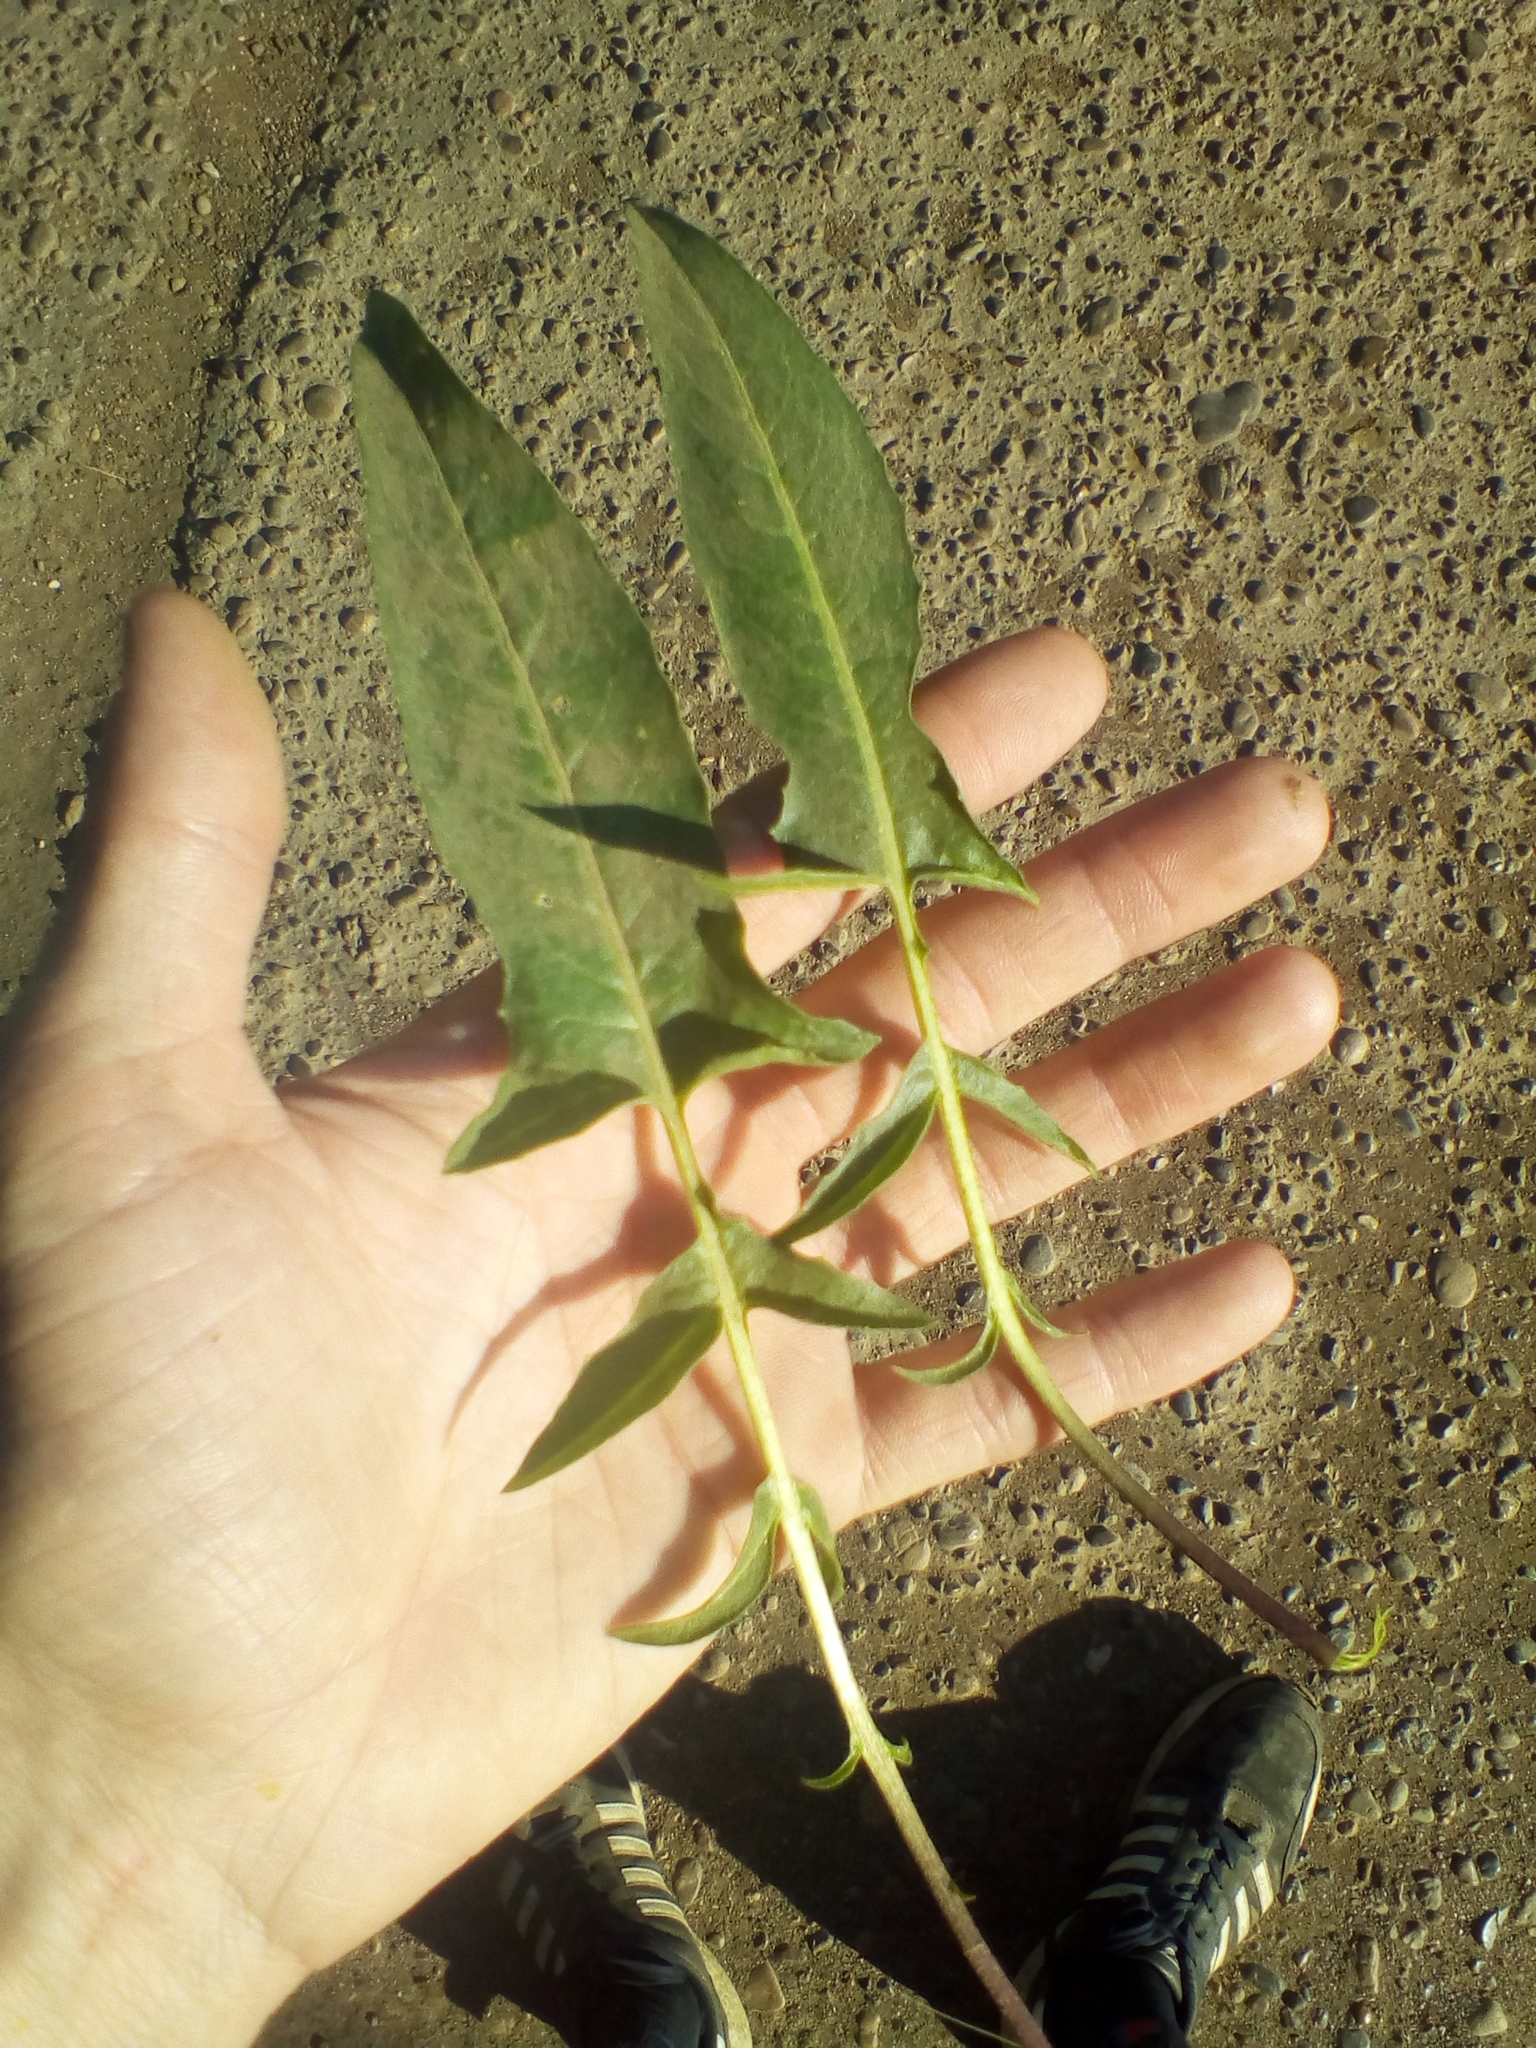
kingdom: Plantae
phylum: Tracheophyta
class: Magnoliopsida
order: Brassicales
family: Brassicaceae
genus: Bunias
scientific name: Bunias orientalis
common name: Warty-cabbage
